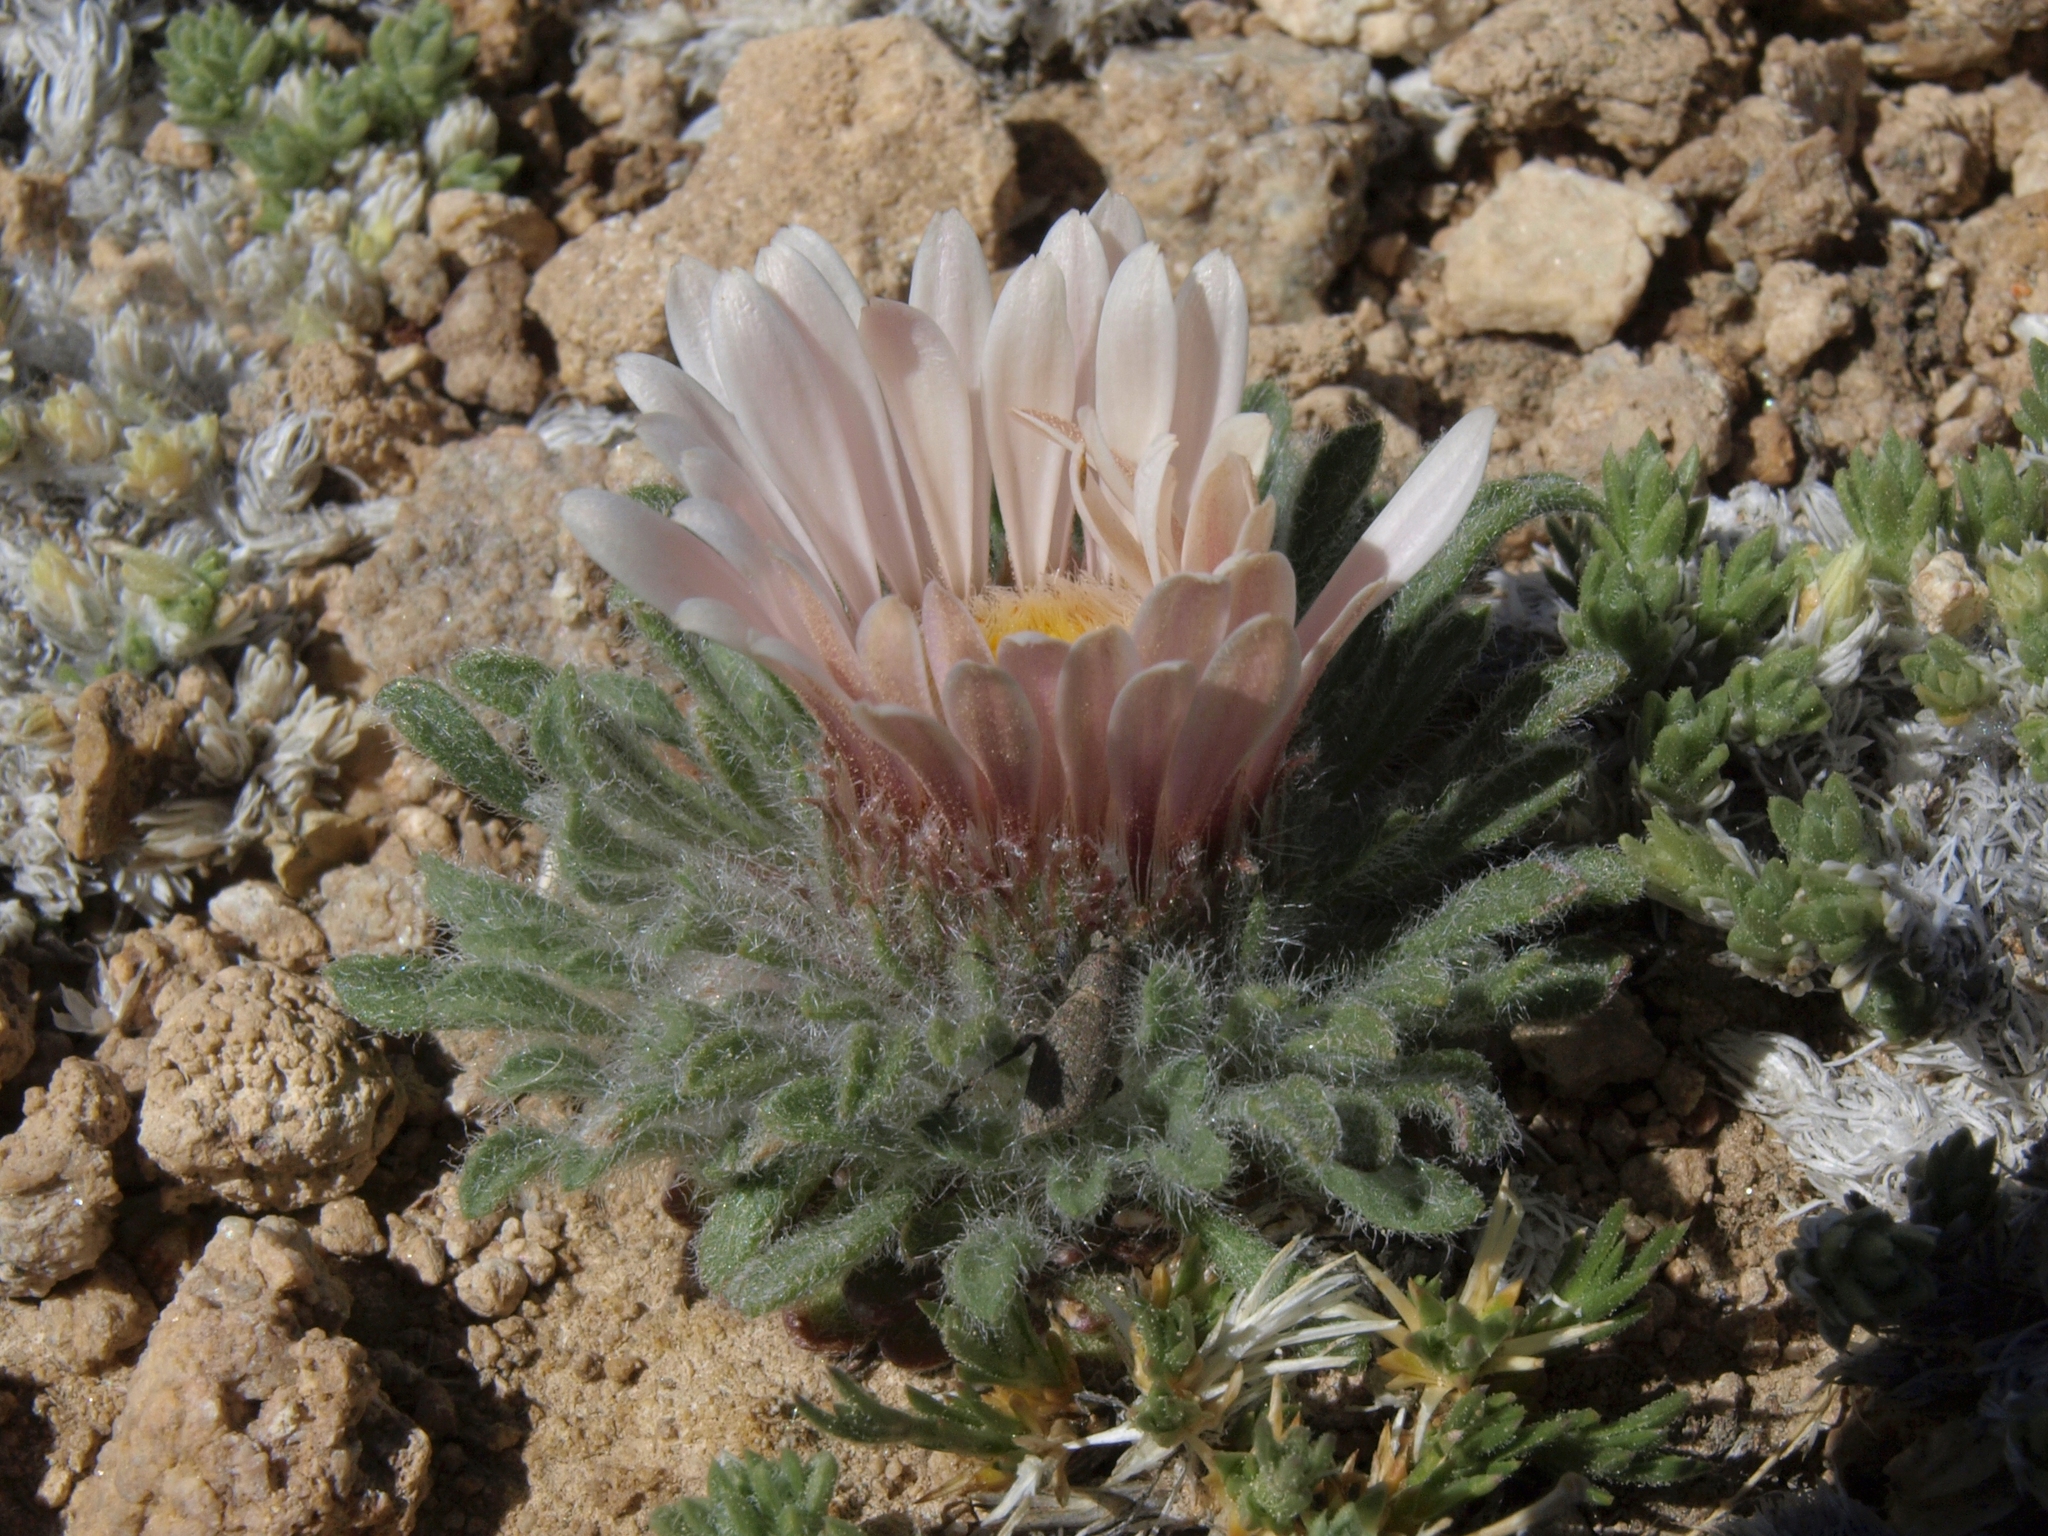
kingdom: Plantae
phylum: Tracheophyta
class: Magnoliopsida
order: Asterales
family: Asteraceae
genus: Townsendia
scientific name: Townsendia condensata
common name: Alpine townsend daisy
